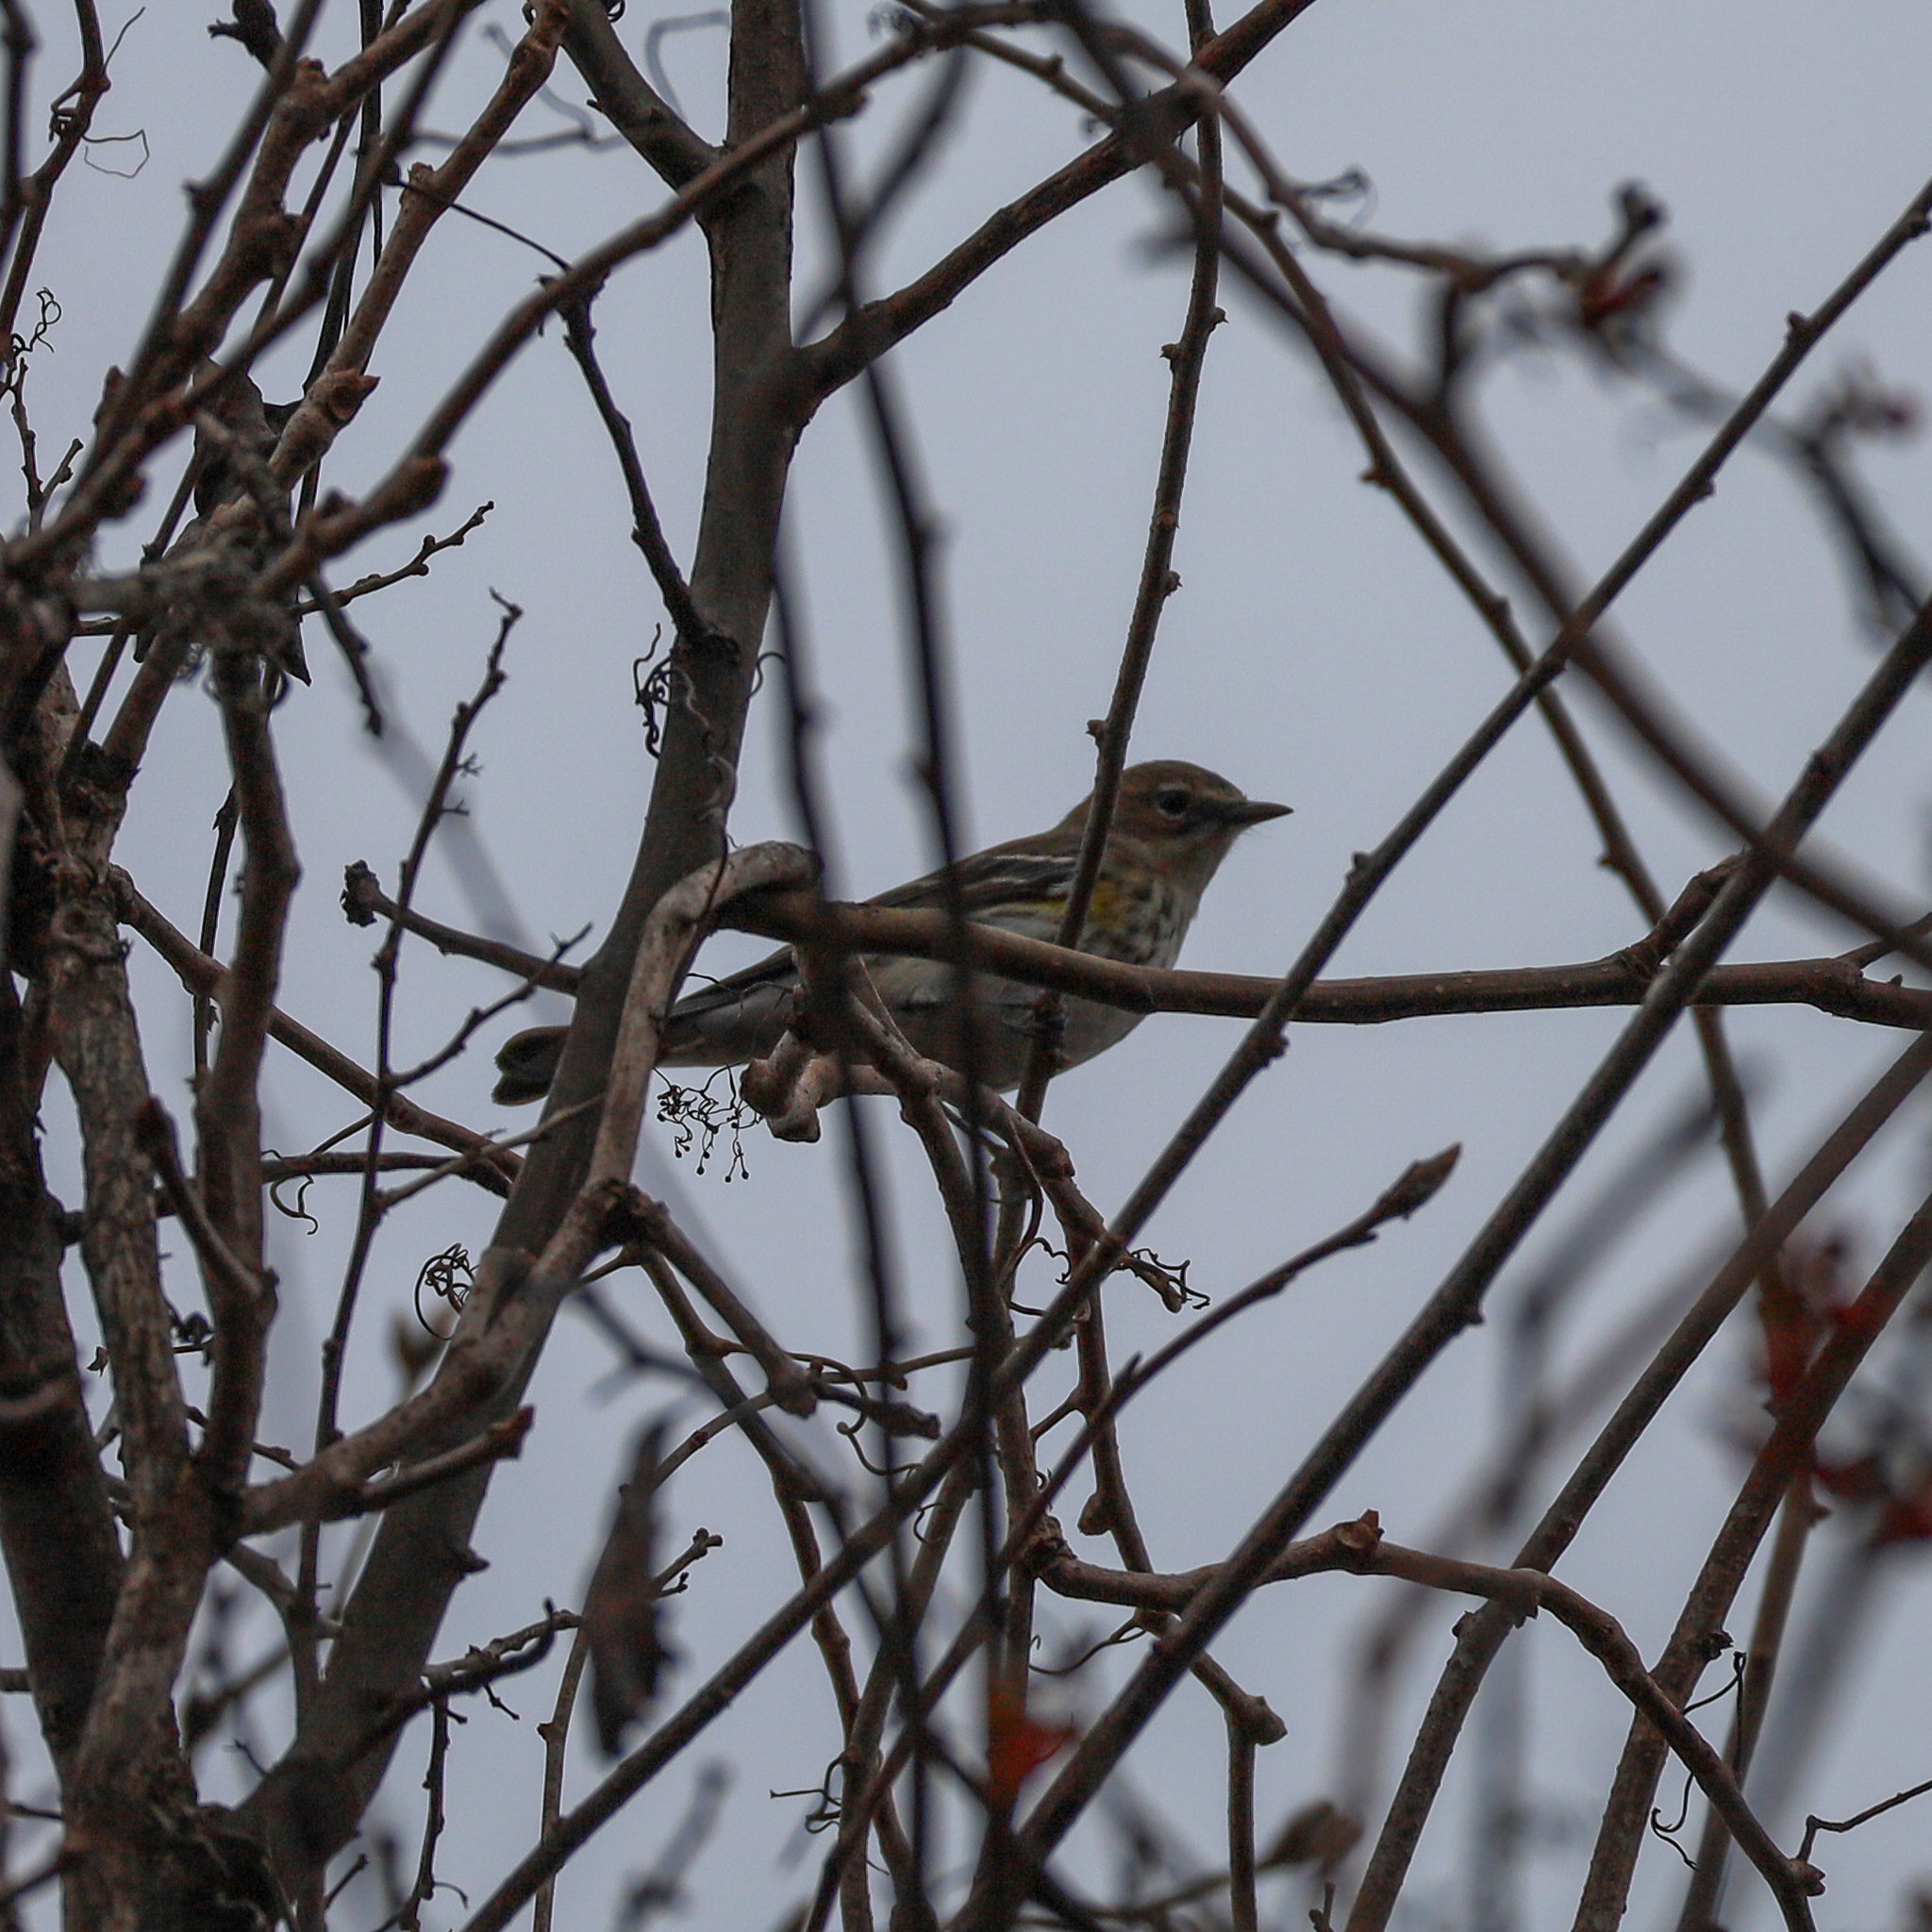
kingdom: Animalia
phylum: Chordata
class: Aves
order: Passeriformes
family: Parulidae
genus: Setophaga
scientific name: Setophaga coronata
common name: Myrtle warbler
